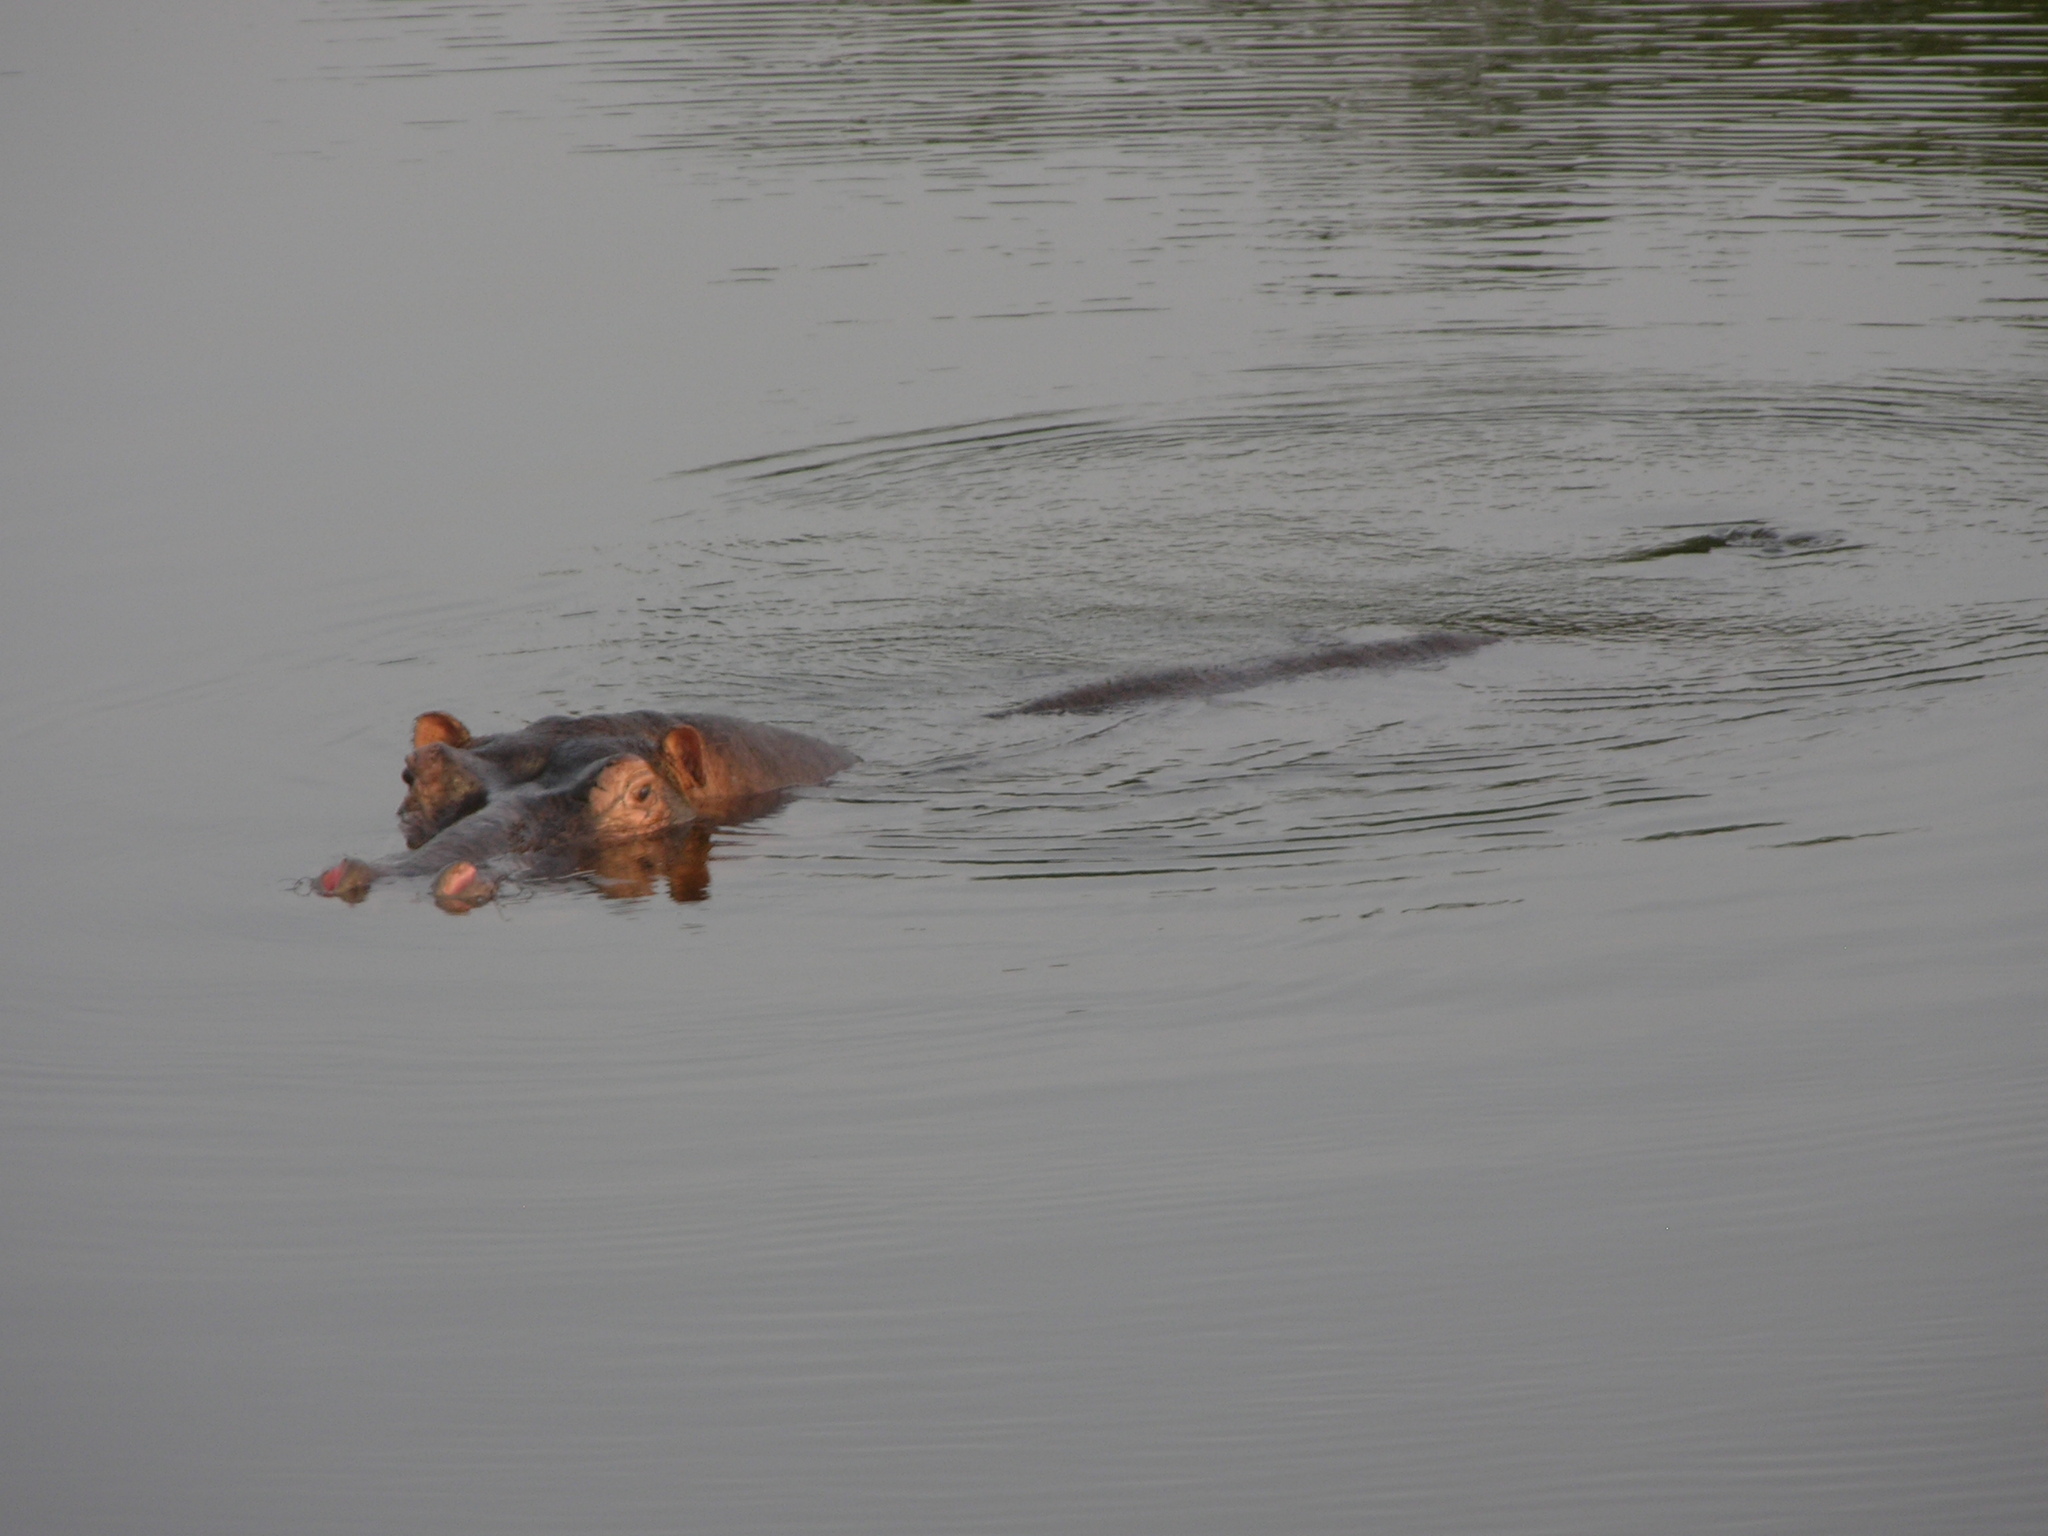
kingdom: Animalia
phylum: Chordata
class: Mammalia
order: Artiodactyla
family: Hippopotamidae
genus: Hippopotamus
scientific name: Hippopotamus amphibius
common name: Common hippopotamus
